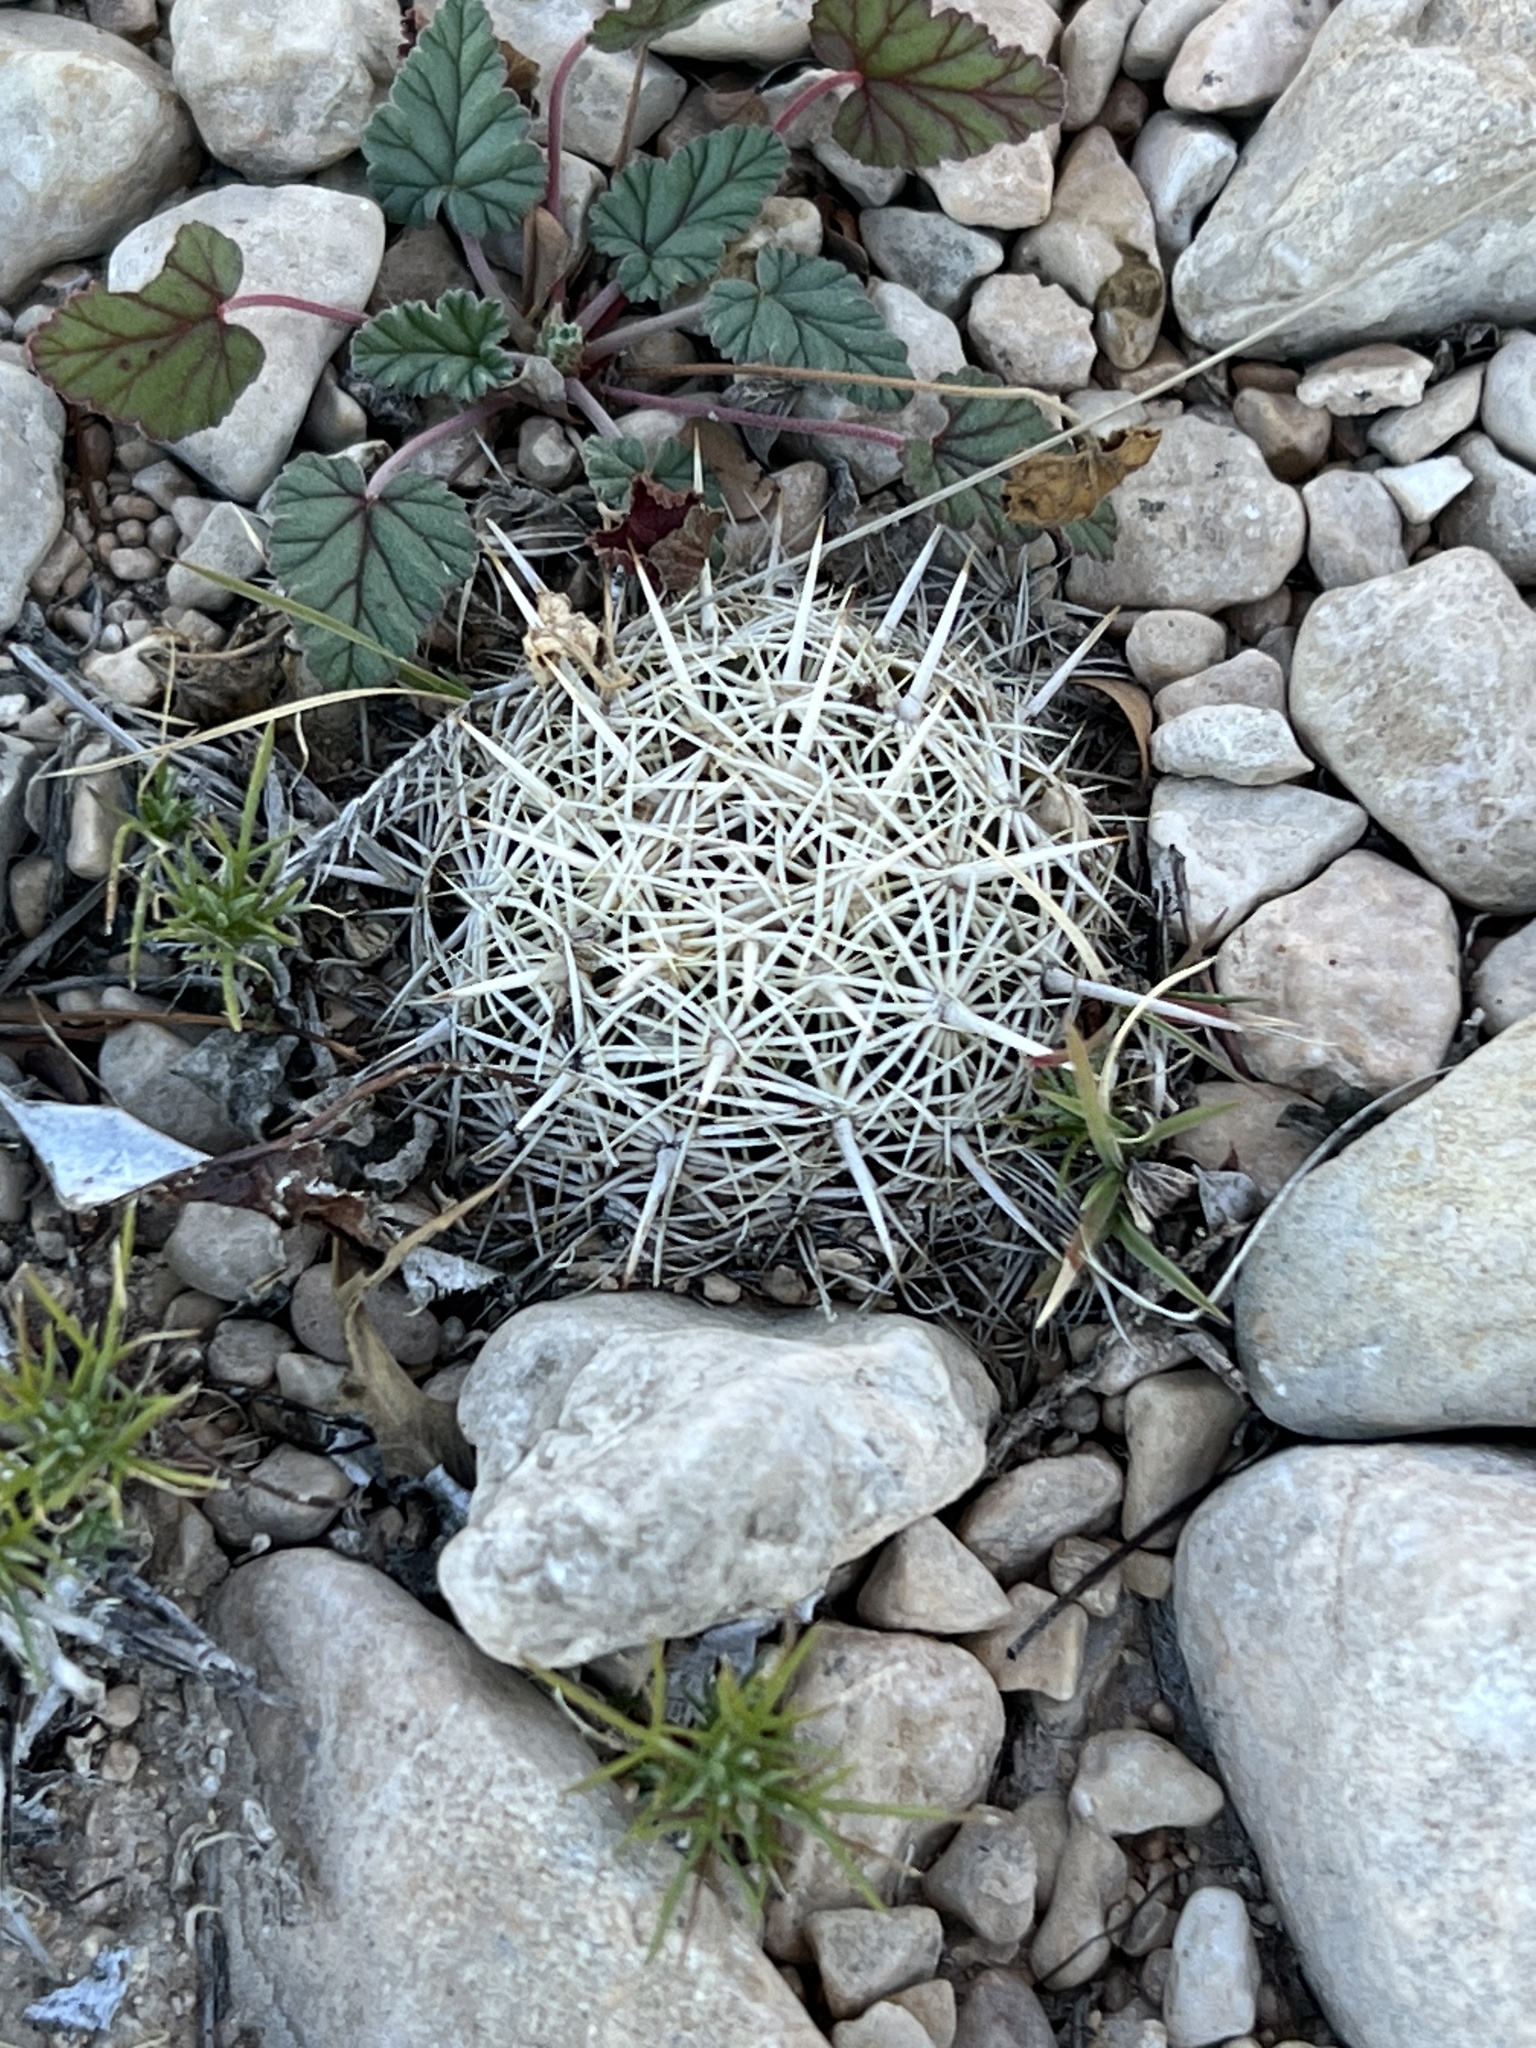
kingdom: Plantae
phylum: Tracheophyta
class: Magnoliopsida
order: Caryophyllales
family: Cactaceae
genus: Coryphantha
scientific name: Coryphantha echinus
